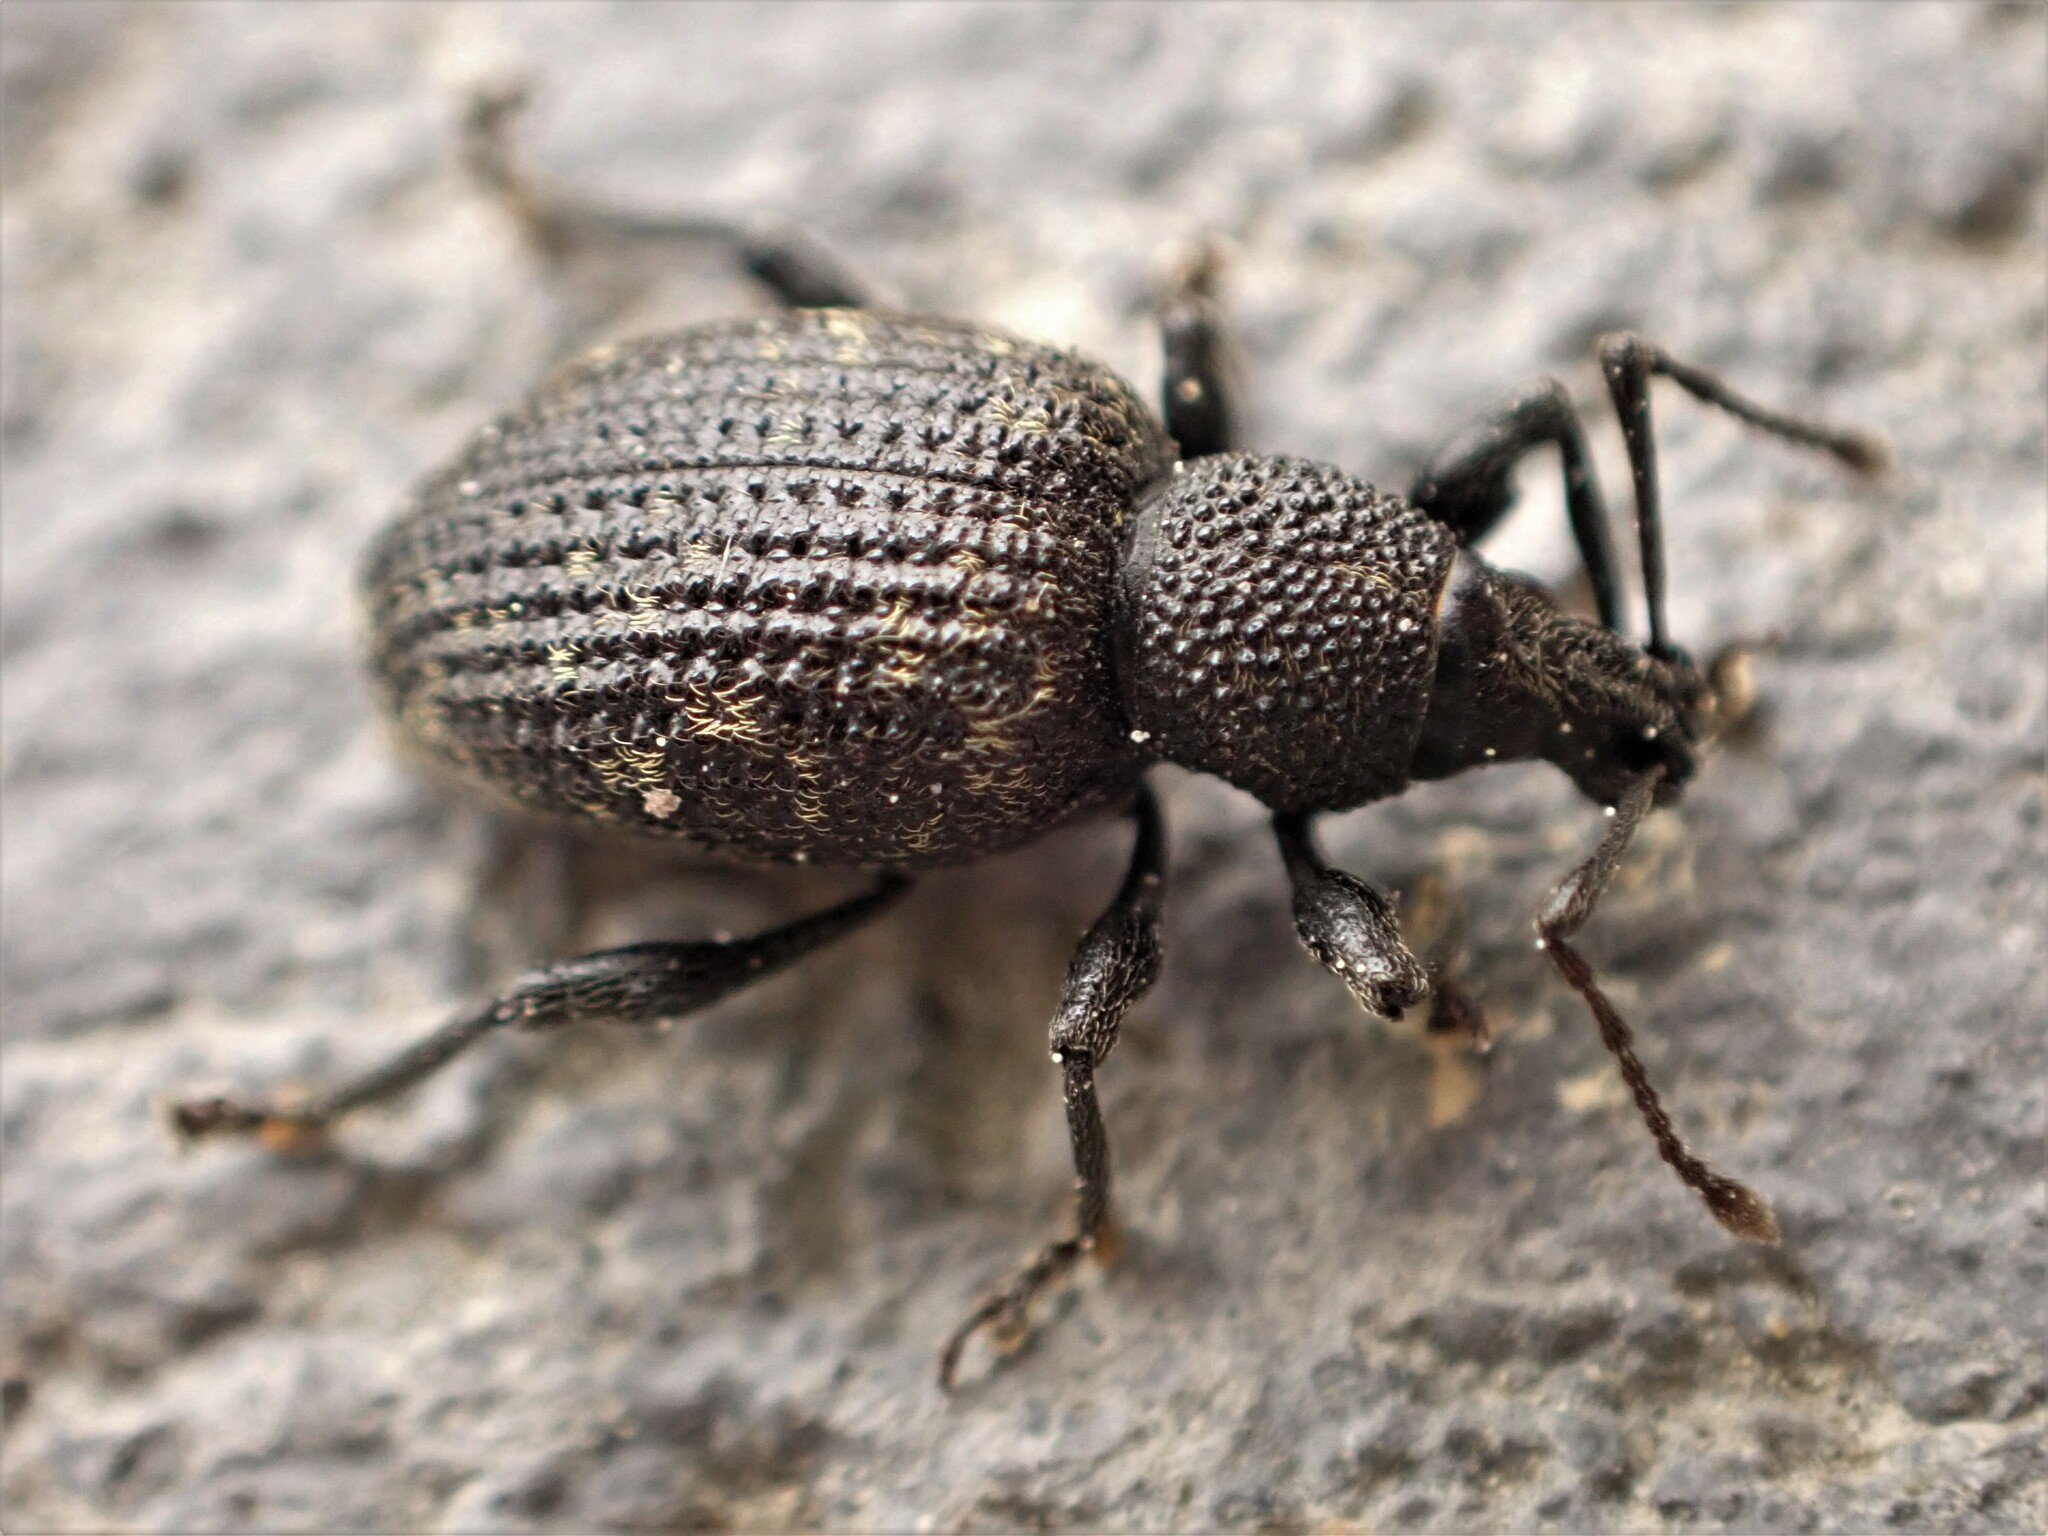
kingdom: Animalia
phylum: Arthropoda
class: Insecta
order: Coleoptera
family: Curculionidae
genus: Otiorhynchus
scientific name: Otiorhynchus sulcatus
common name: Black vine weevil
